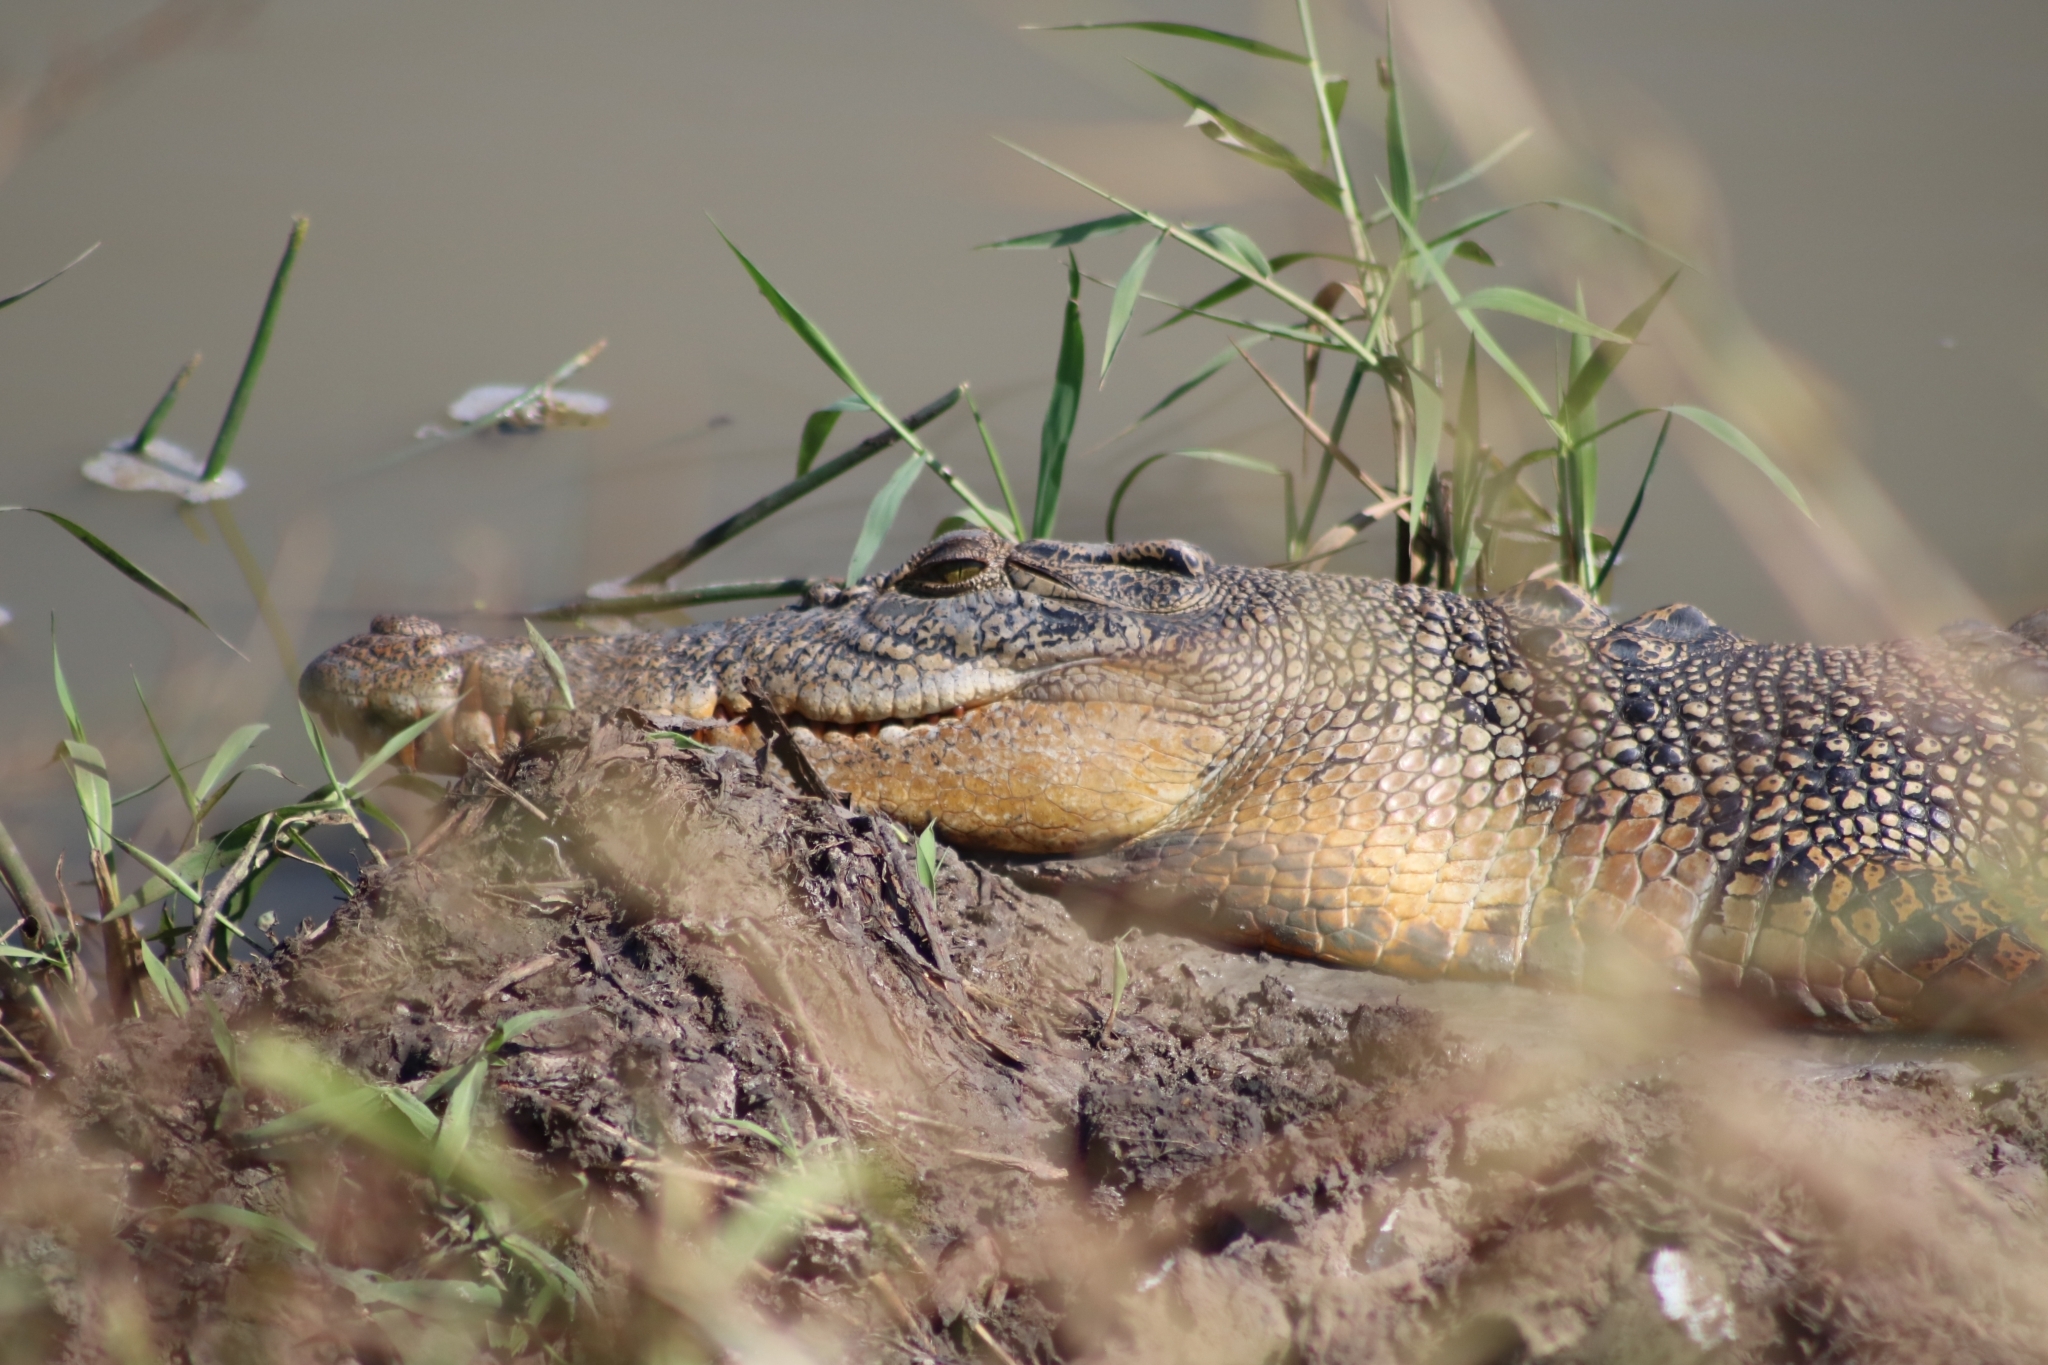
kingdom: Animalia
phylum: Chordata
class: Crocodylia
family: Crocodylidae
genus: Crocodylus
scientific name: Crocodylus porosus
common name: Saltwater crocodile
